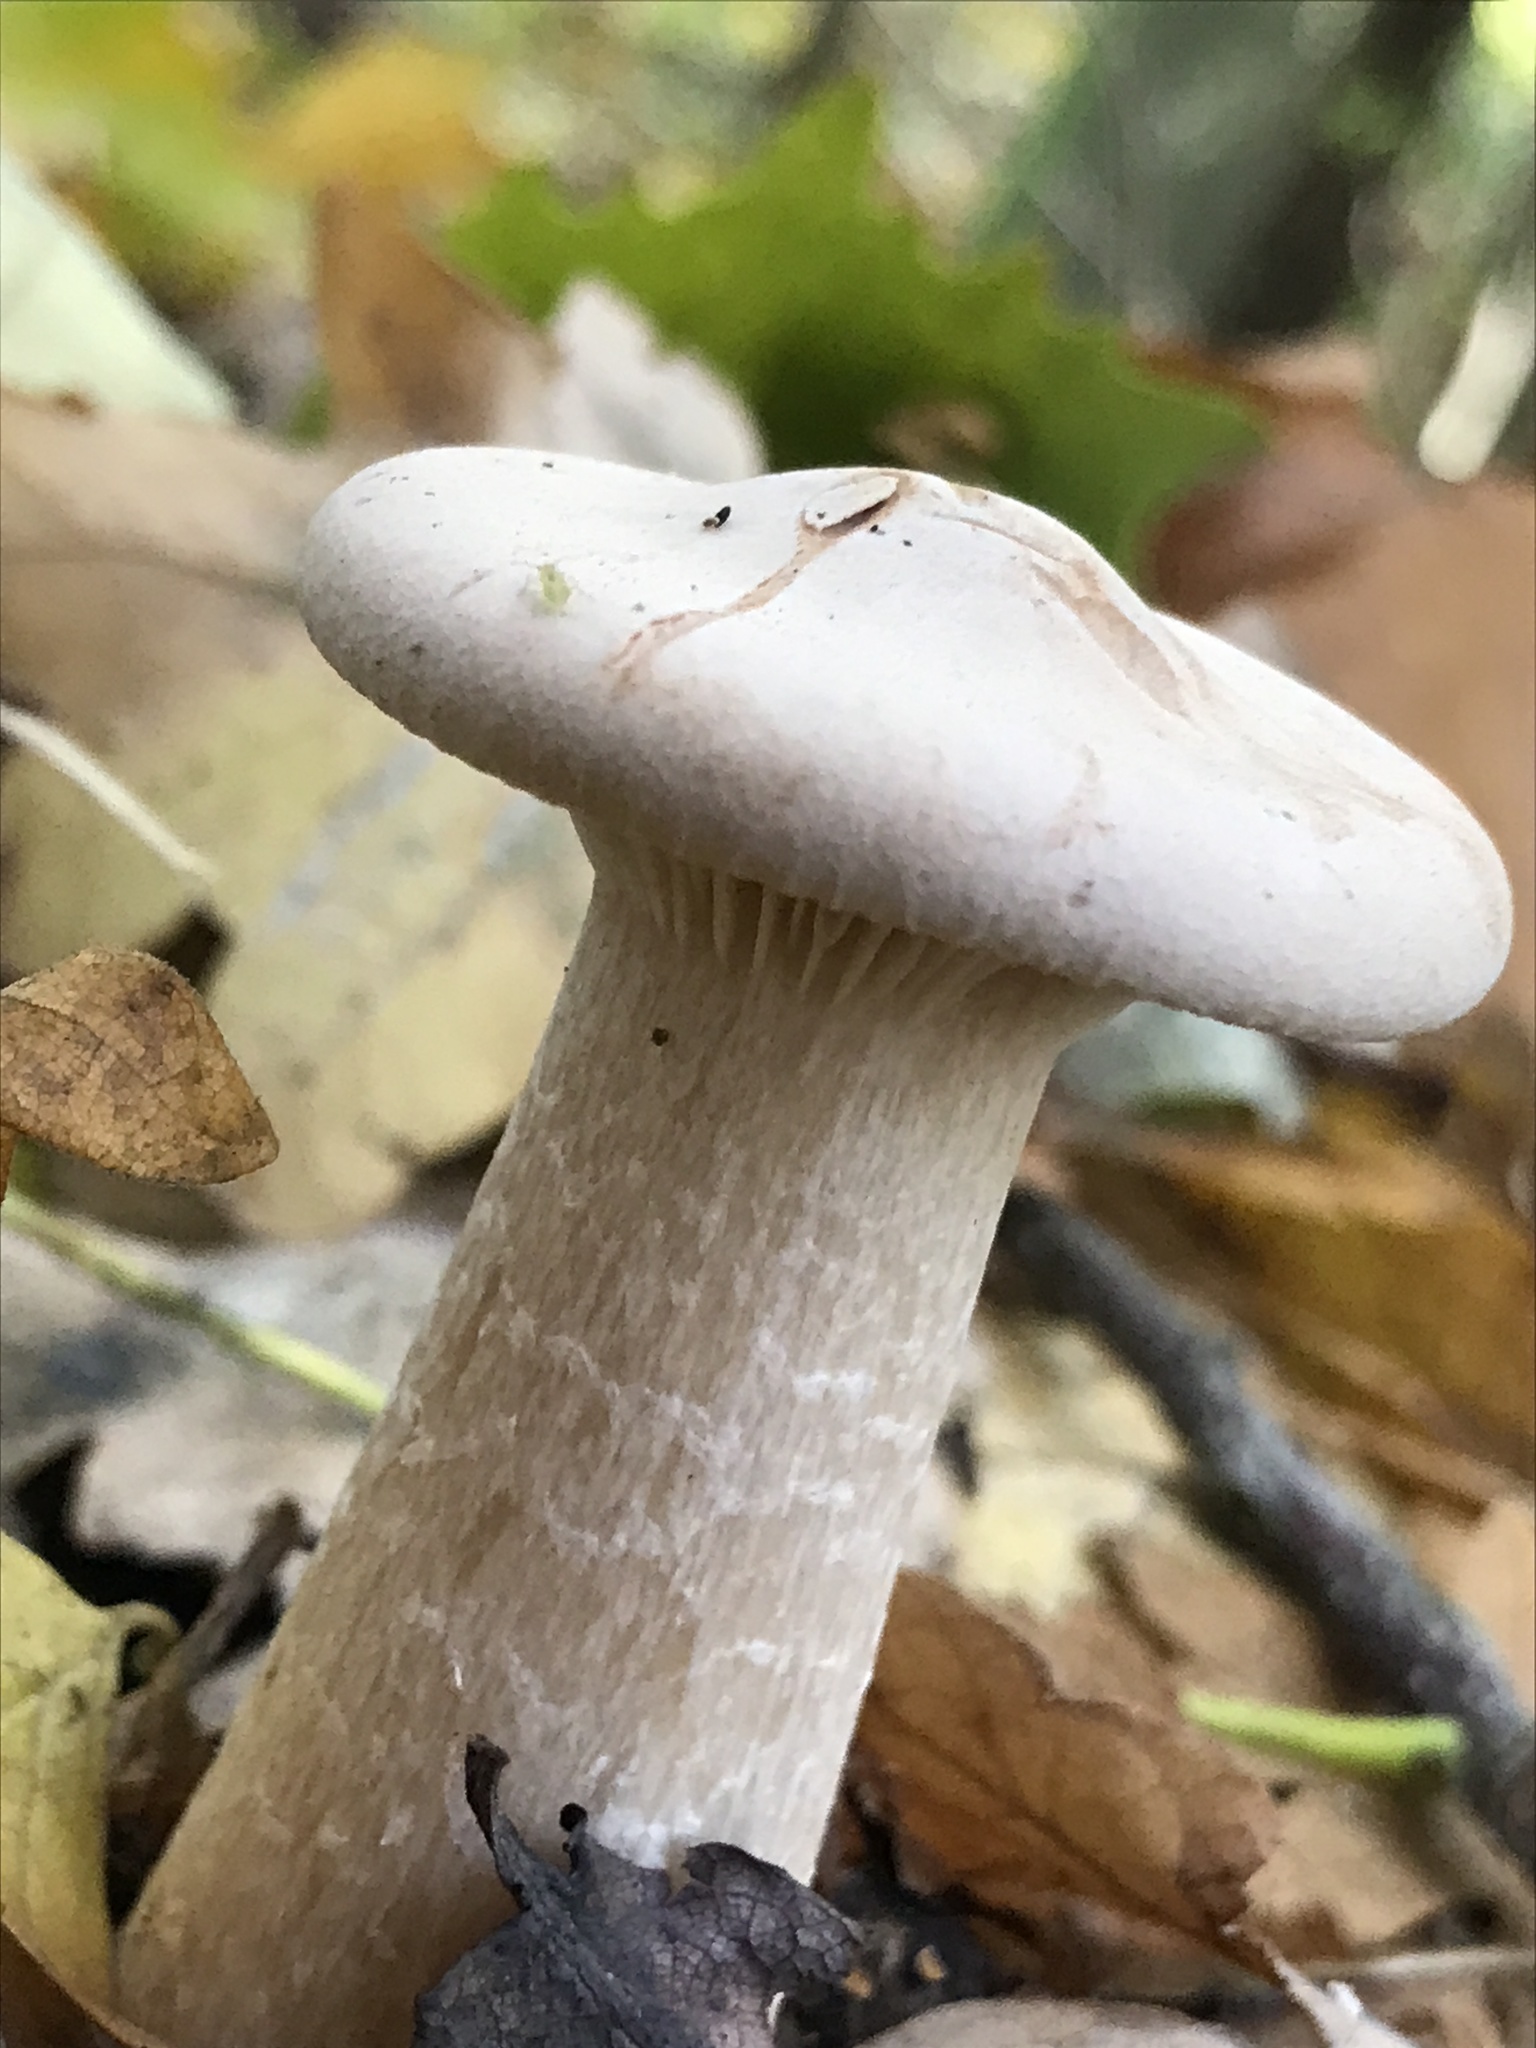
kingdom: Fungi
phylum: Basidiomycota
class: Agaricomycetes
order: Agaricales
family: Tricholomataceae
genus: Infundibulicybe
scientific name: Infundibulicybe geotropa
